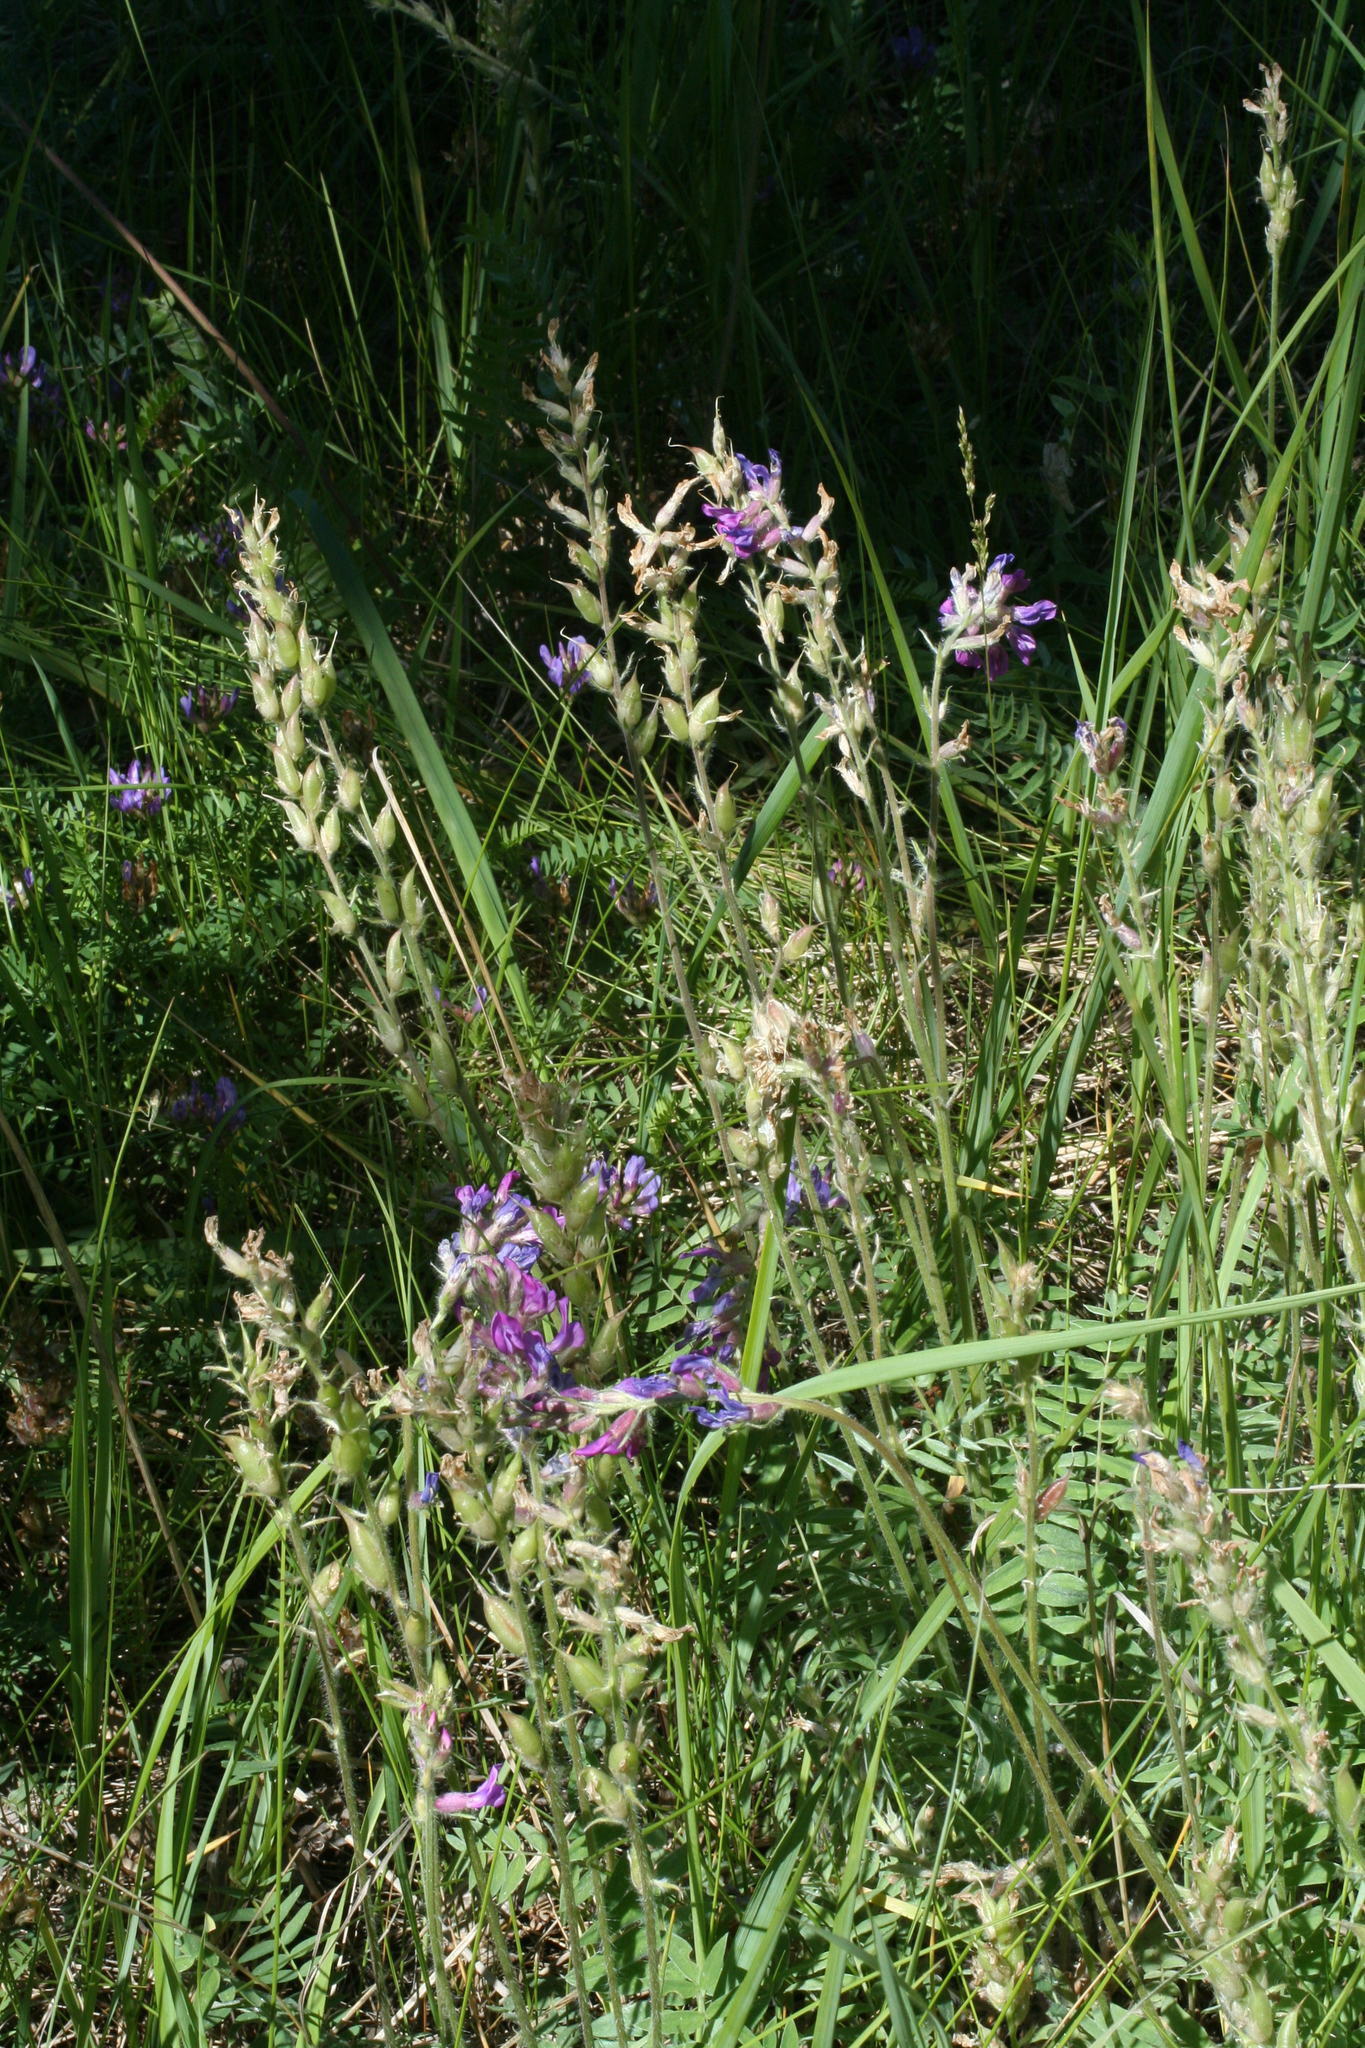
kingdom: Plantae
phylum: Tracheophyta
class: Magnoliopsida
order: Fabales
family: Fabaceae
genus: Oxytropis
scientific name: Oxytropis campanulata
